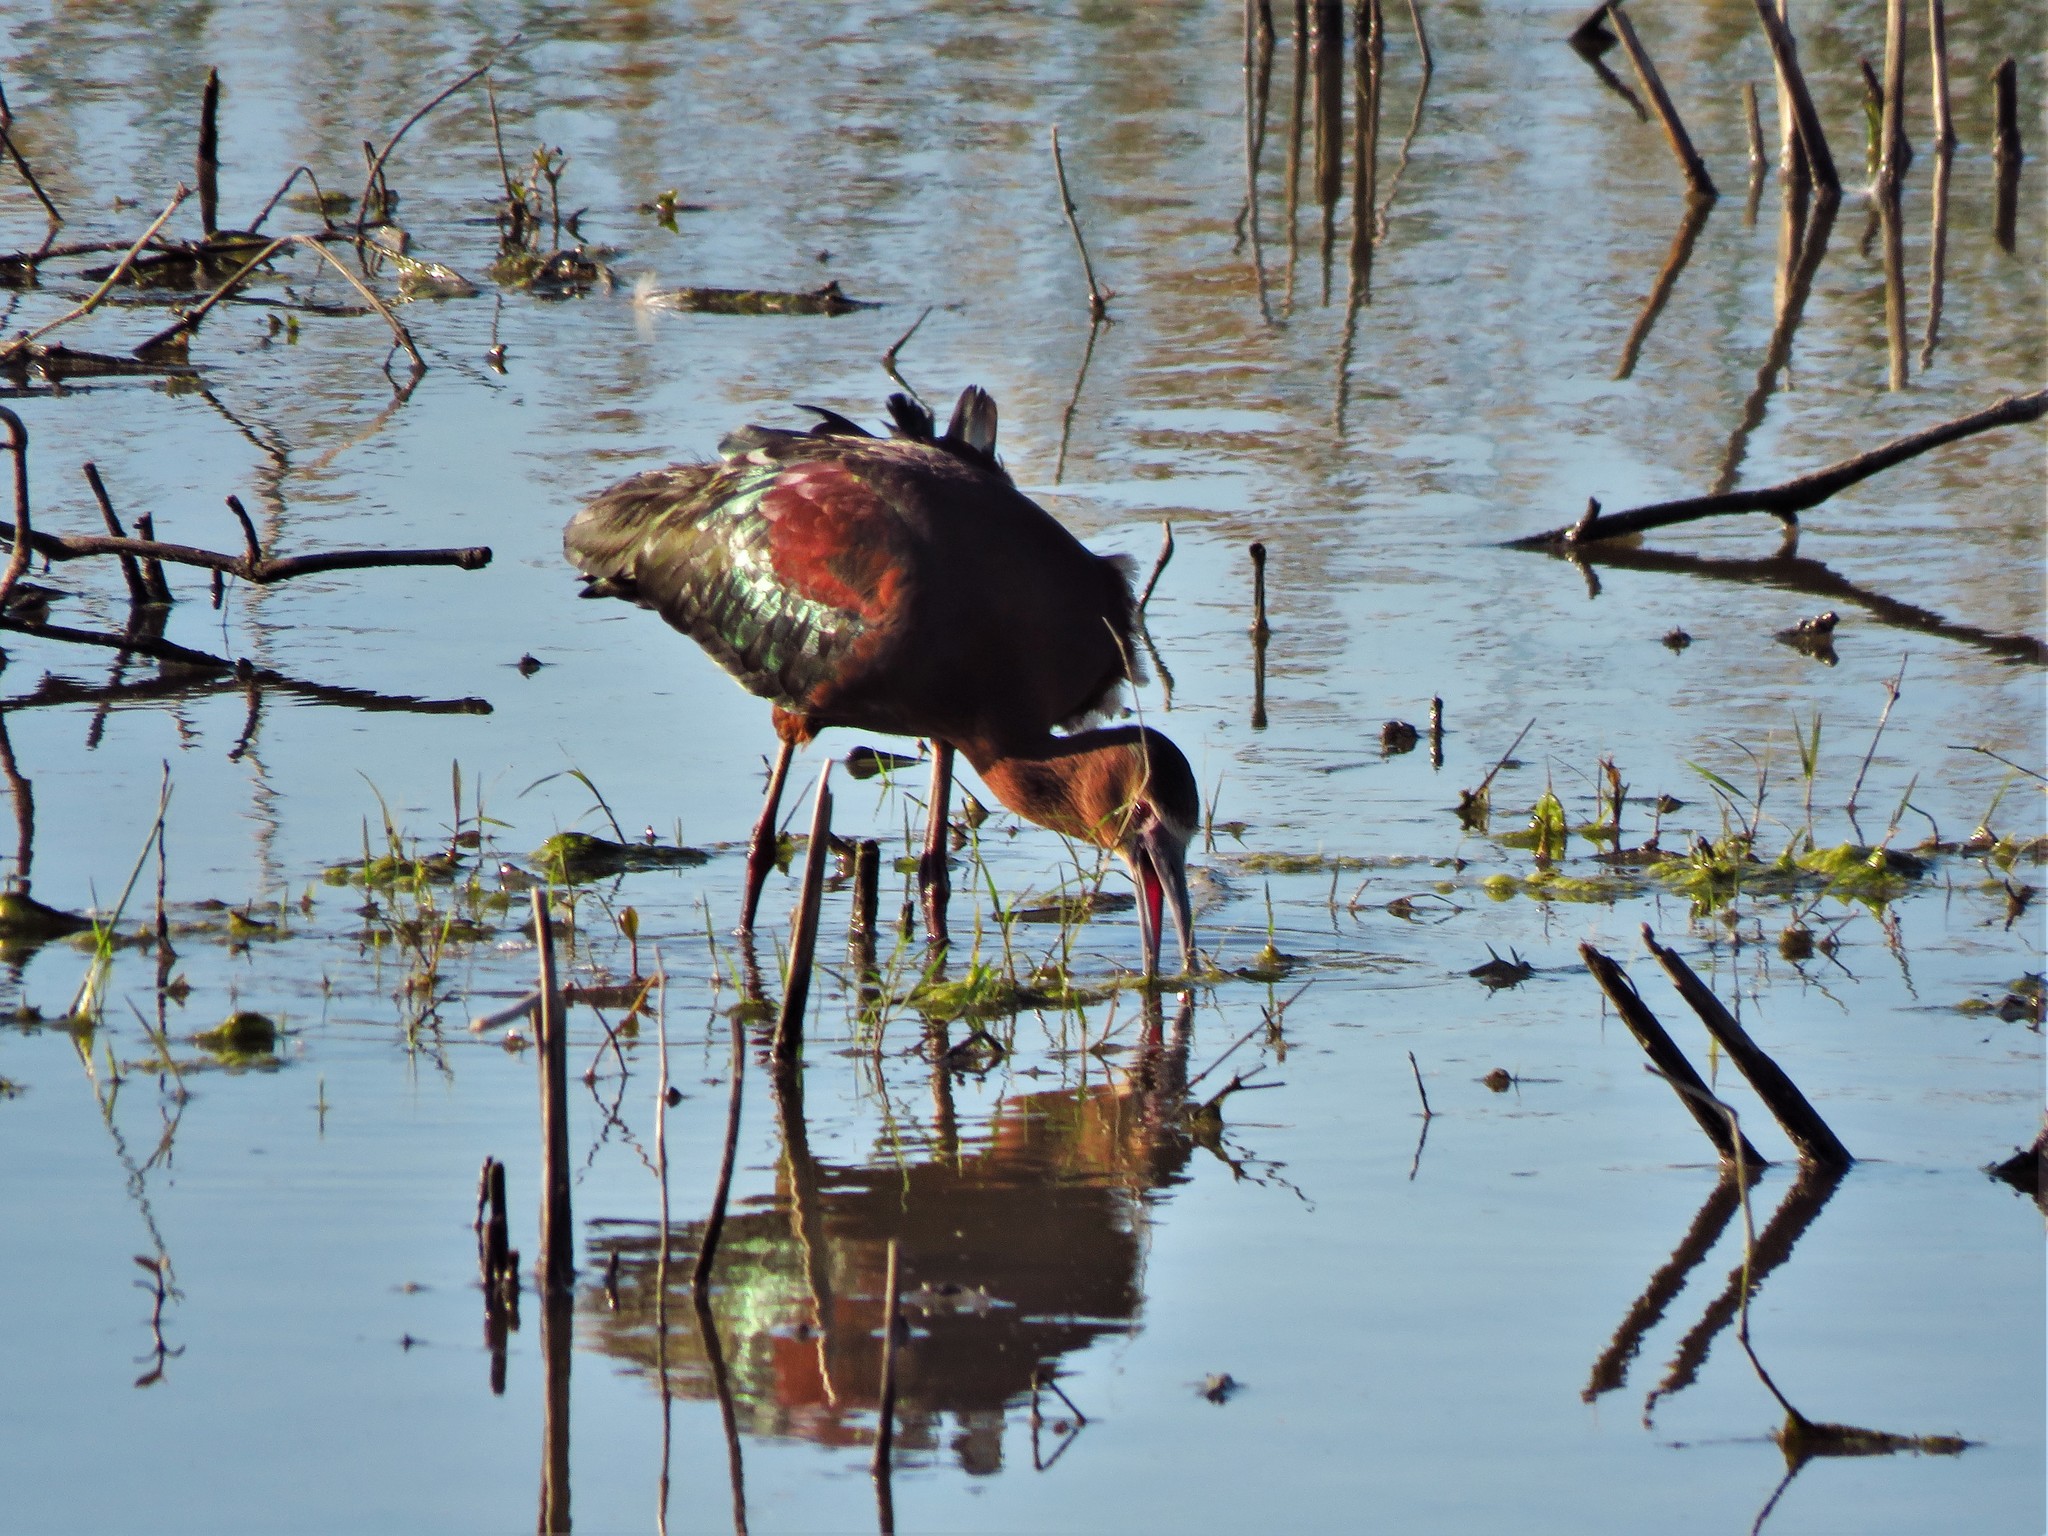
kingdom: Animalia
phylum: Chordata
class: Aves
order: Pelecaniformes
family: Threskiornithidae
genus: Plegadis
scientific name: Plegadis chihi
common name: White-faced ibis
